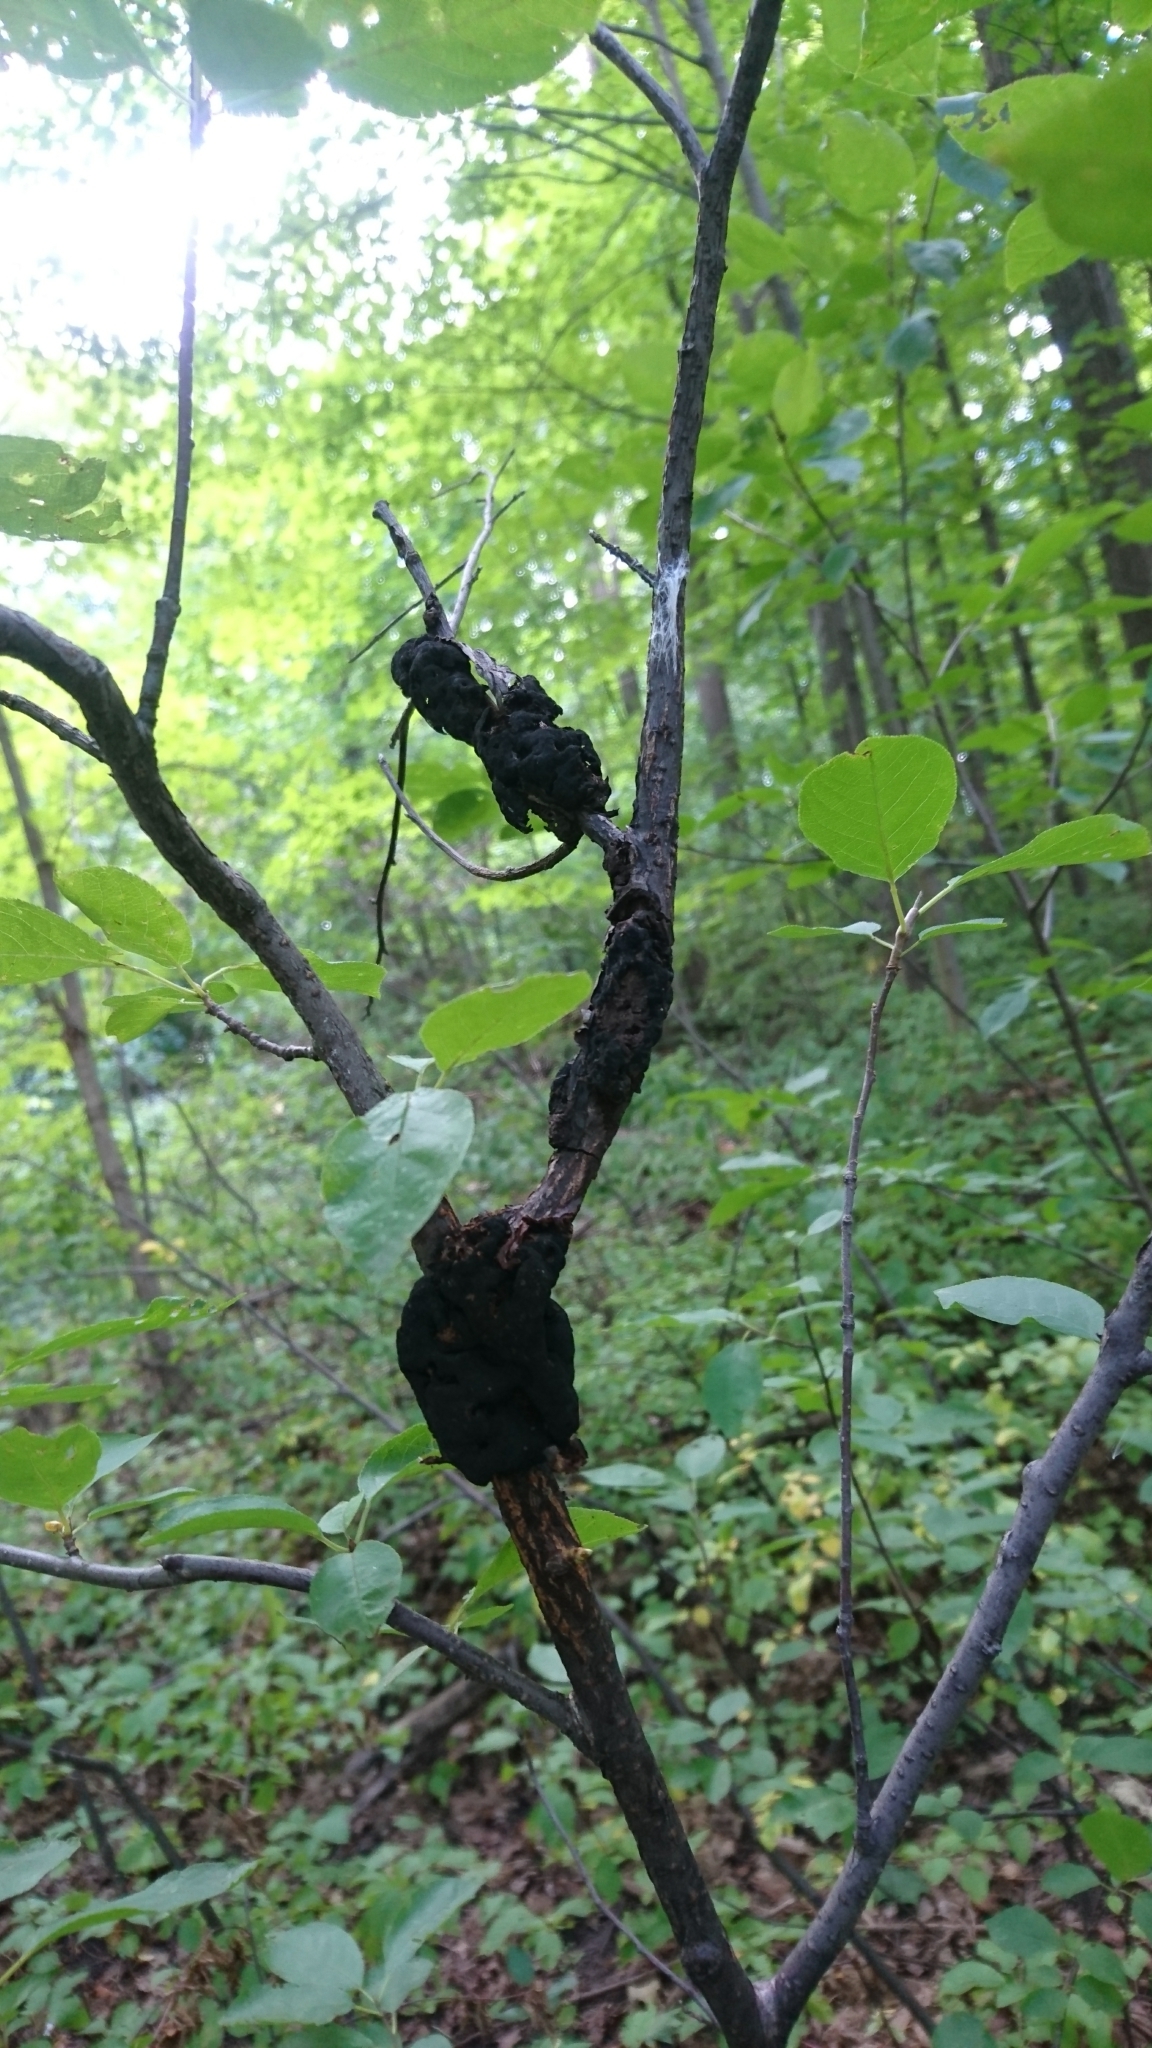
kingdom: Fungi
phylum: Ascomycota
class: Dothideomycetes
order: Venturiales
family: Venturiaceae
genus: Apiosporina
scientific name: Apiosporina morbosa
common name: Black knot
